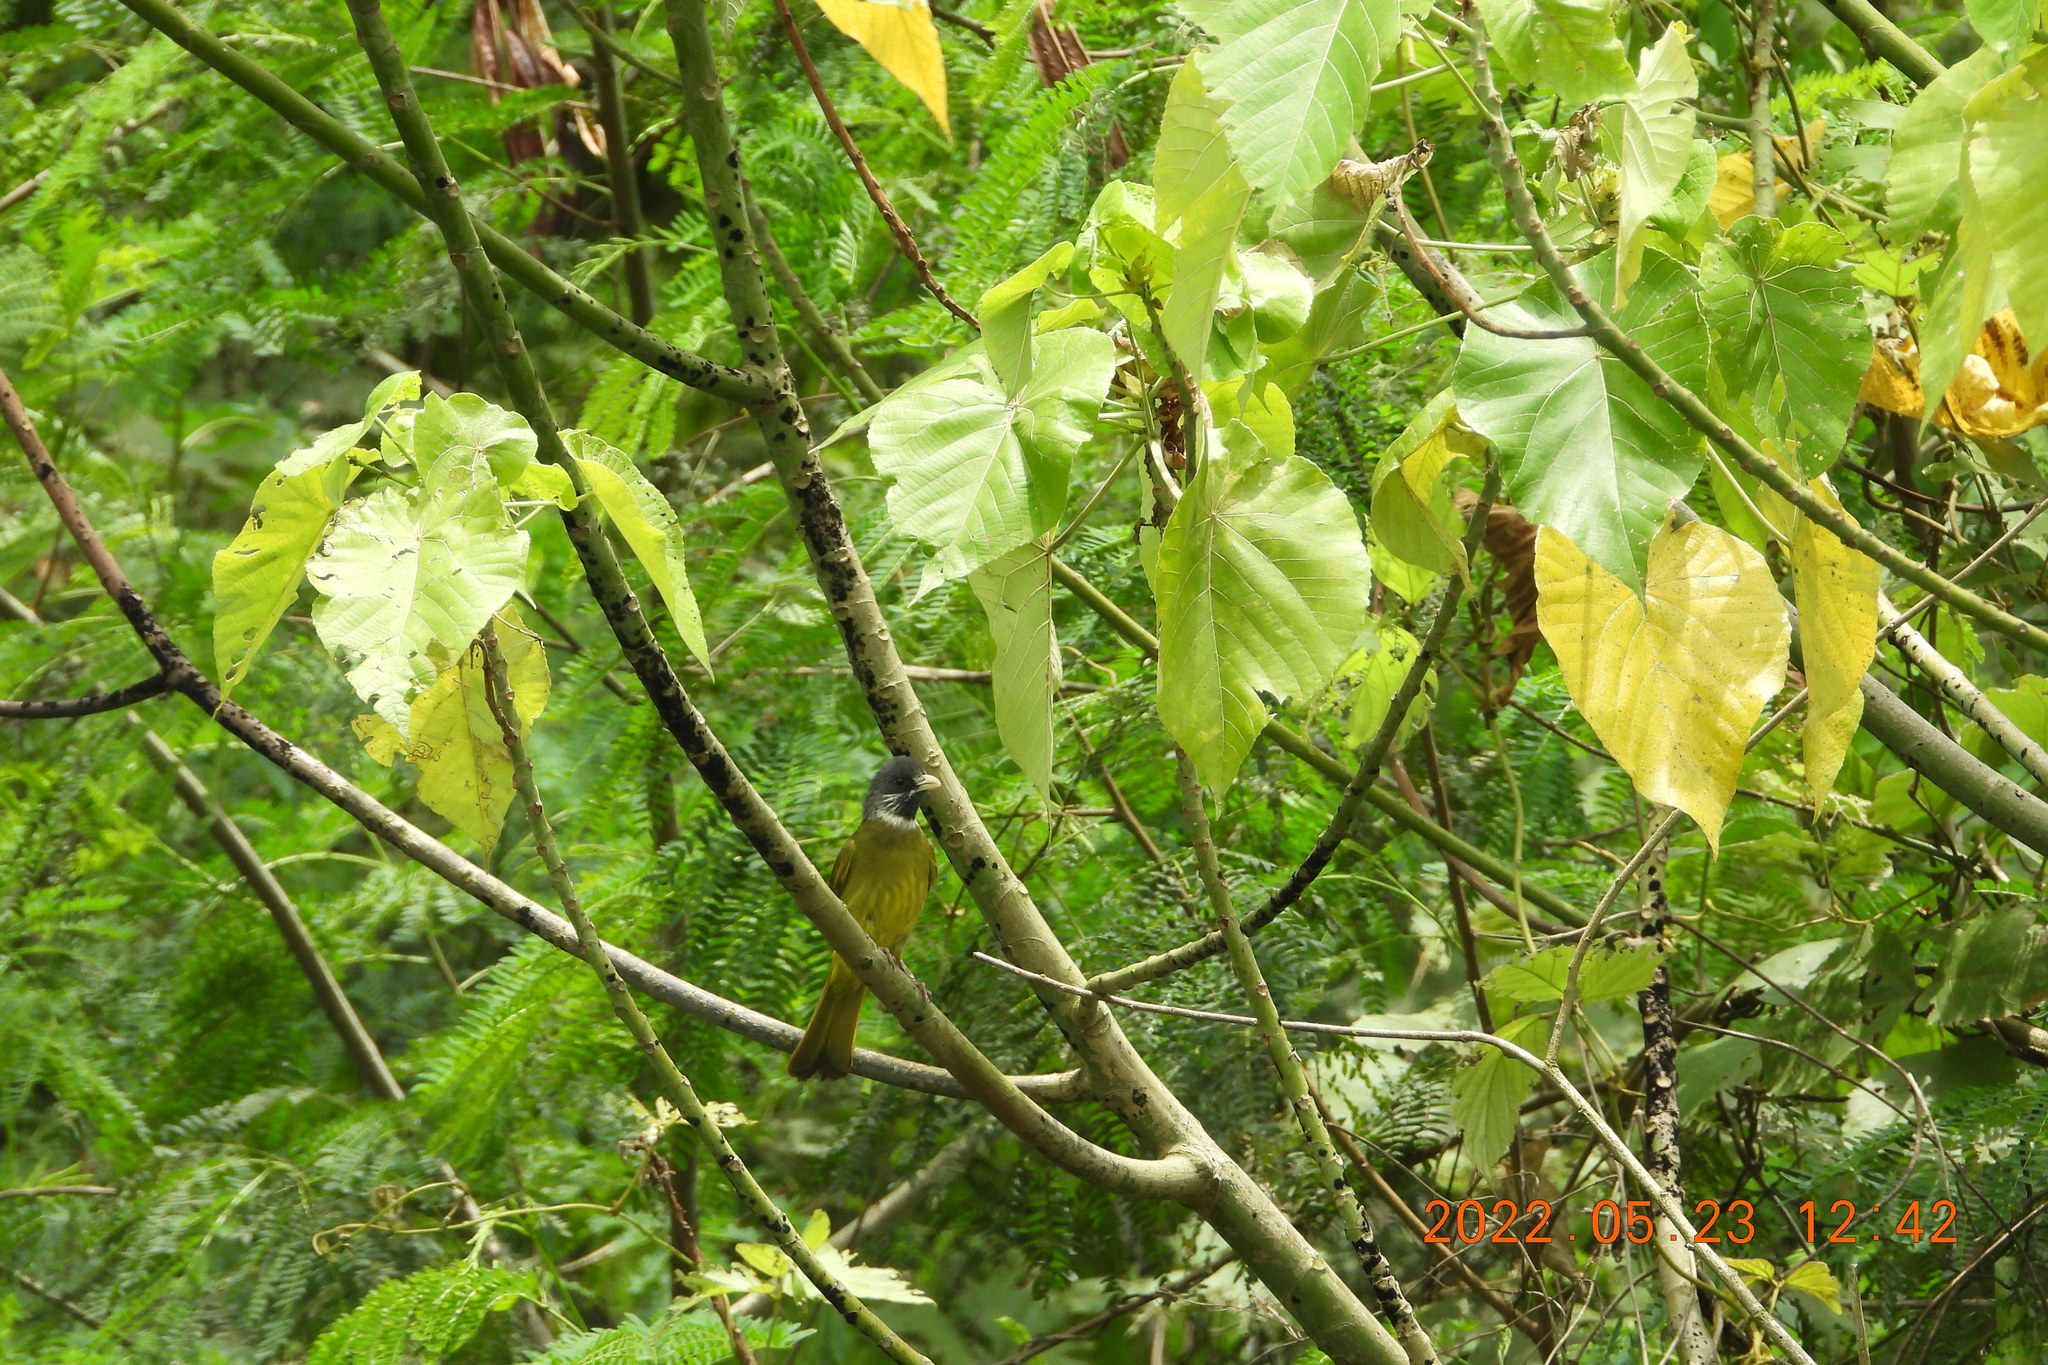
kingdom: Animalia
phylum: Chordata
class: Aves
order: Passeriformes
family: Pycnonotidae
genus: Spizixos
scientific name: Spizixos semitorques
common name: Collared finchbill
